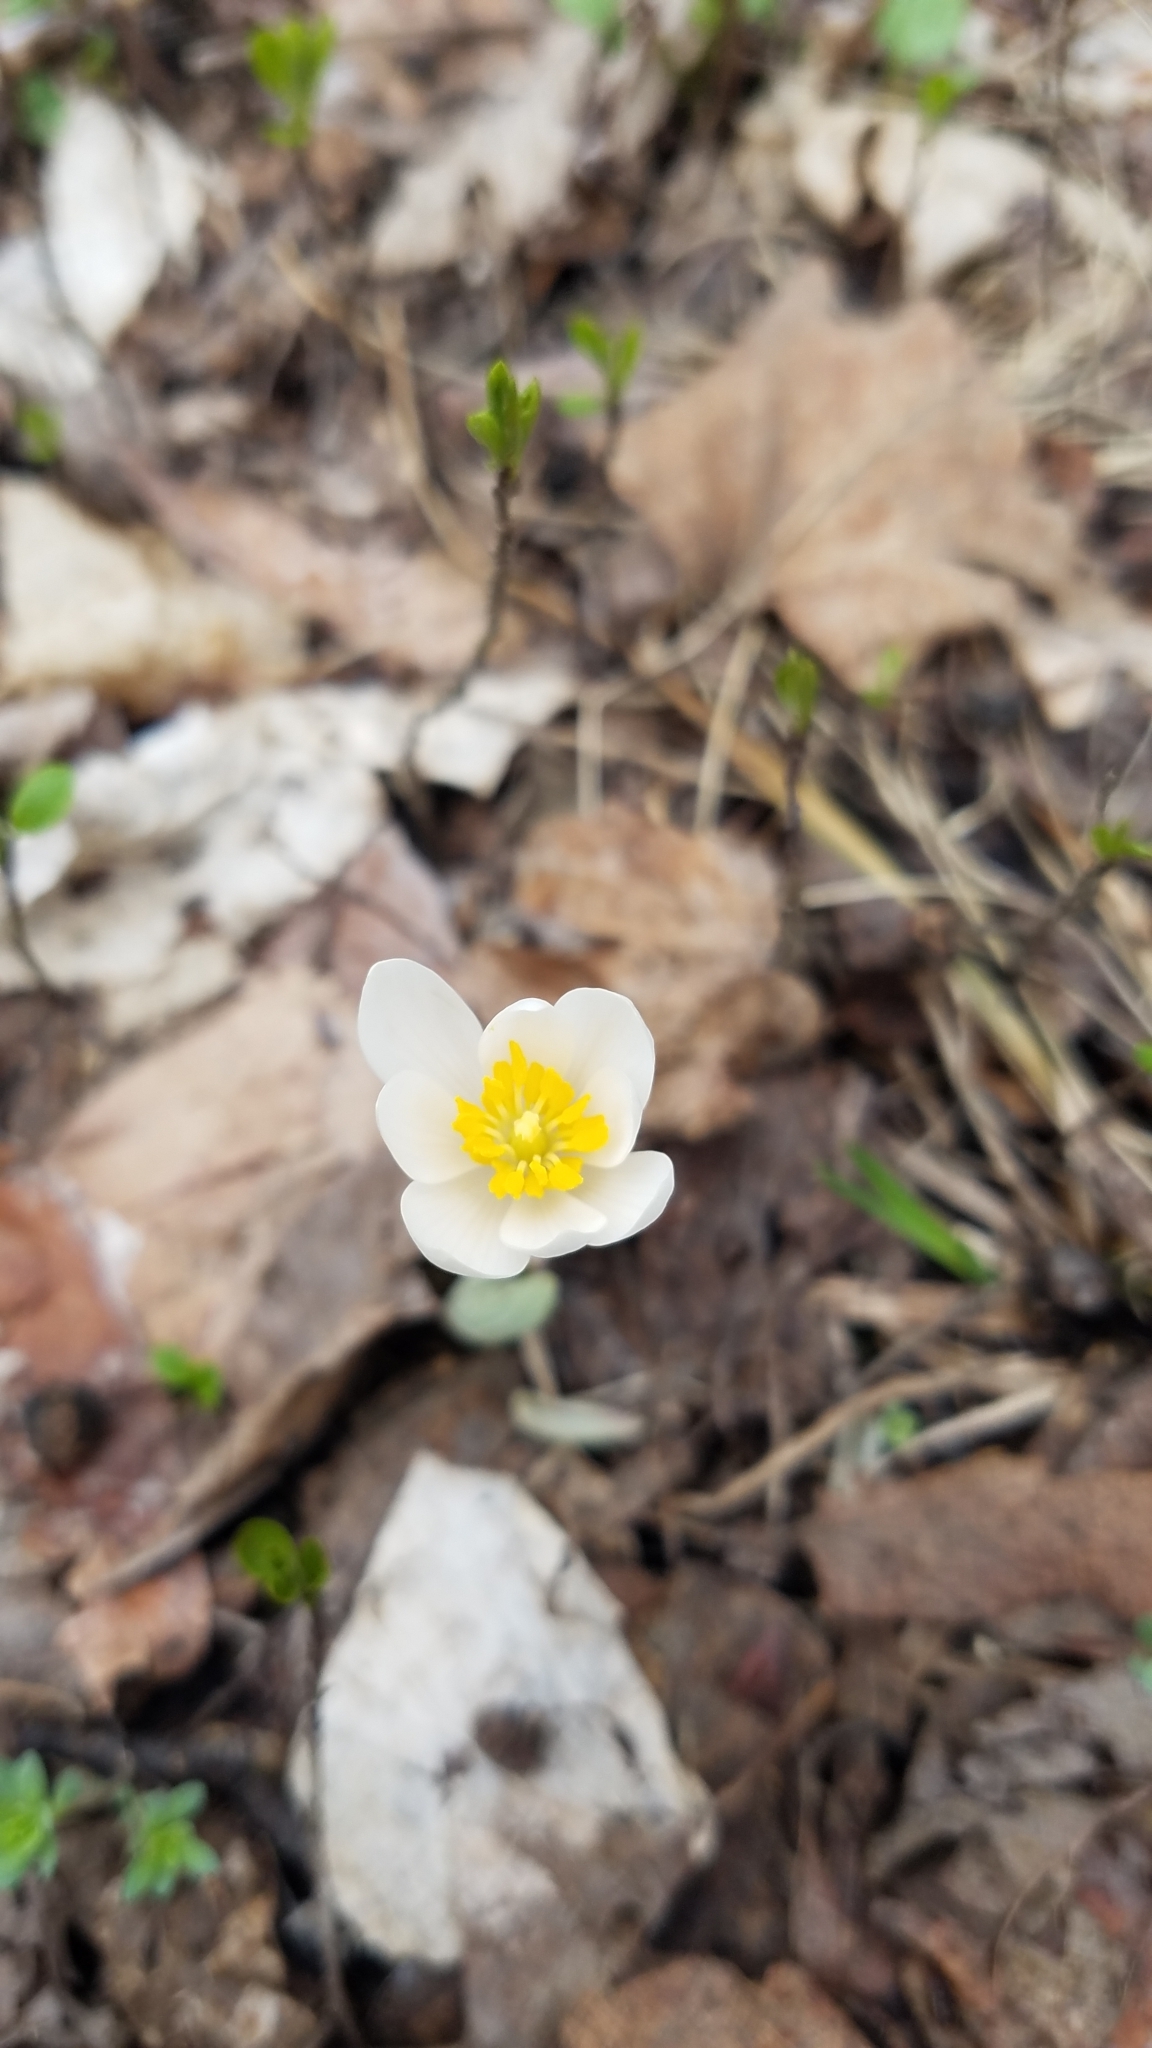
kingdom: Plantae
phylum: Tracheophyta
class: Magnoliopsida
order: Ranunculales
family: Papaveraceae
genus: Sanguinaria
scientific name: Sanguinaria canadensis
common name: Bloodroot
